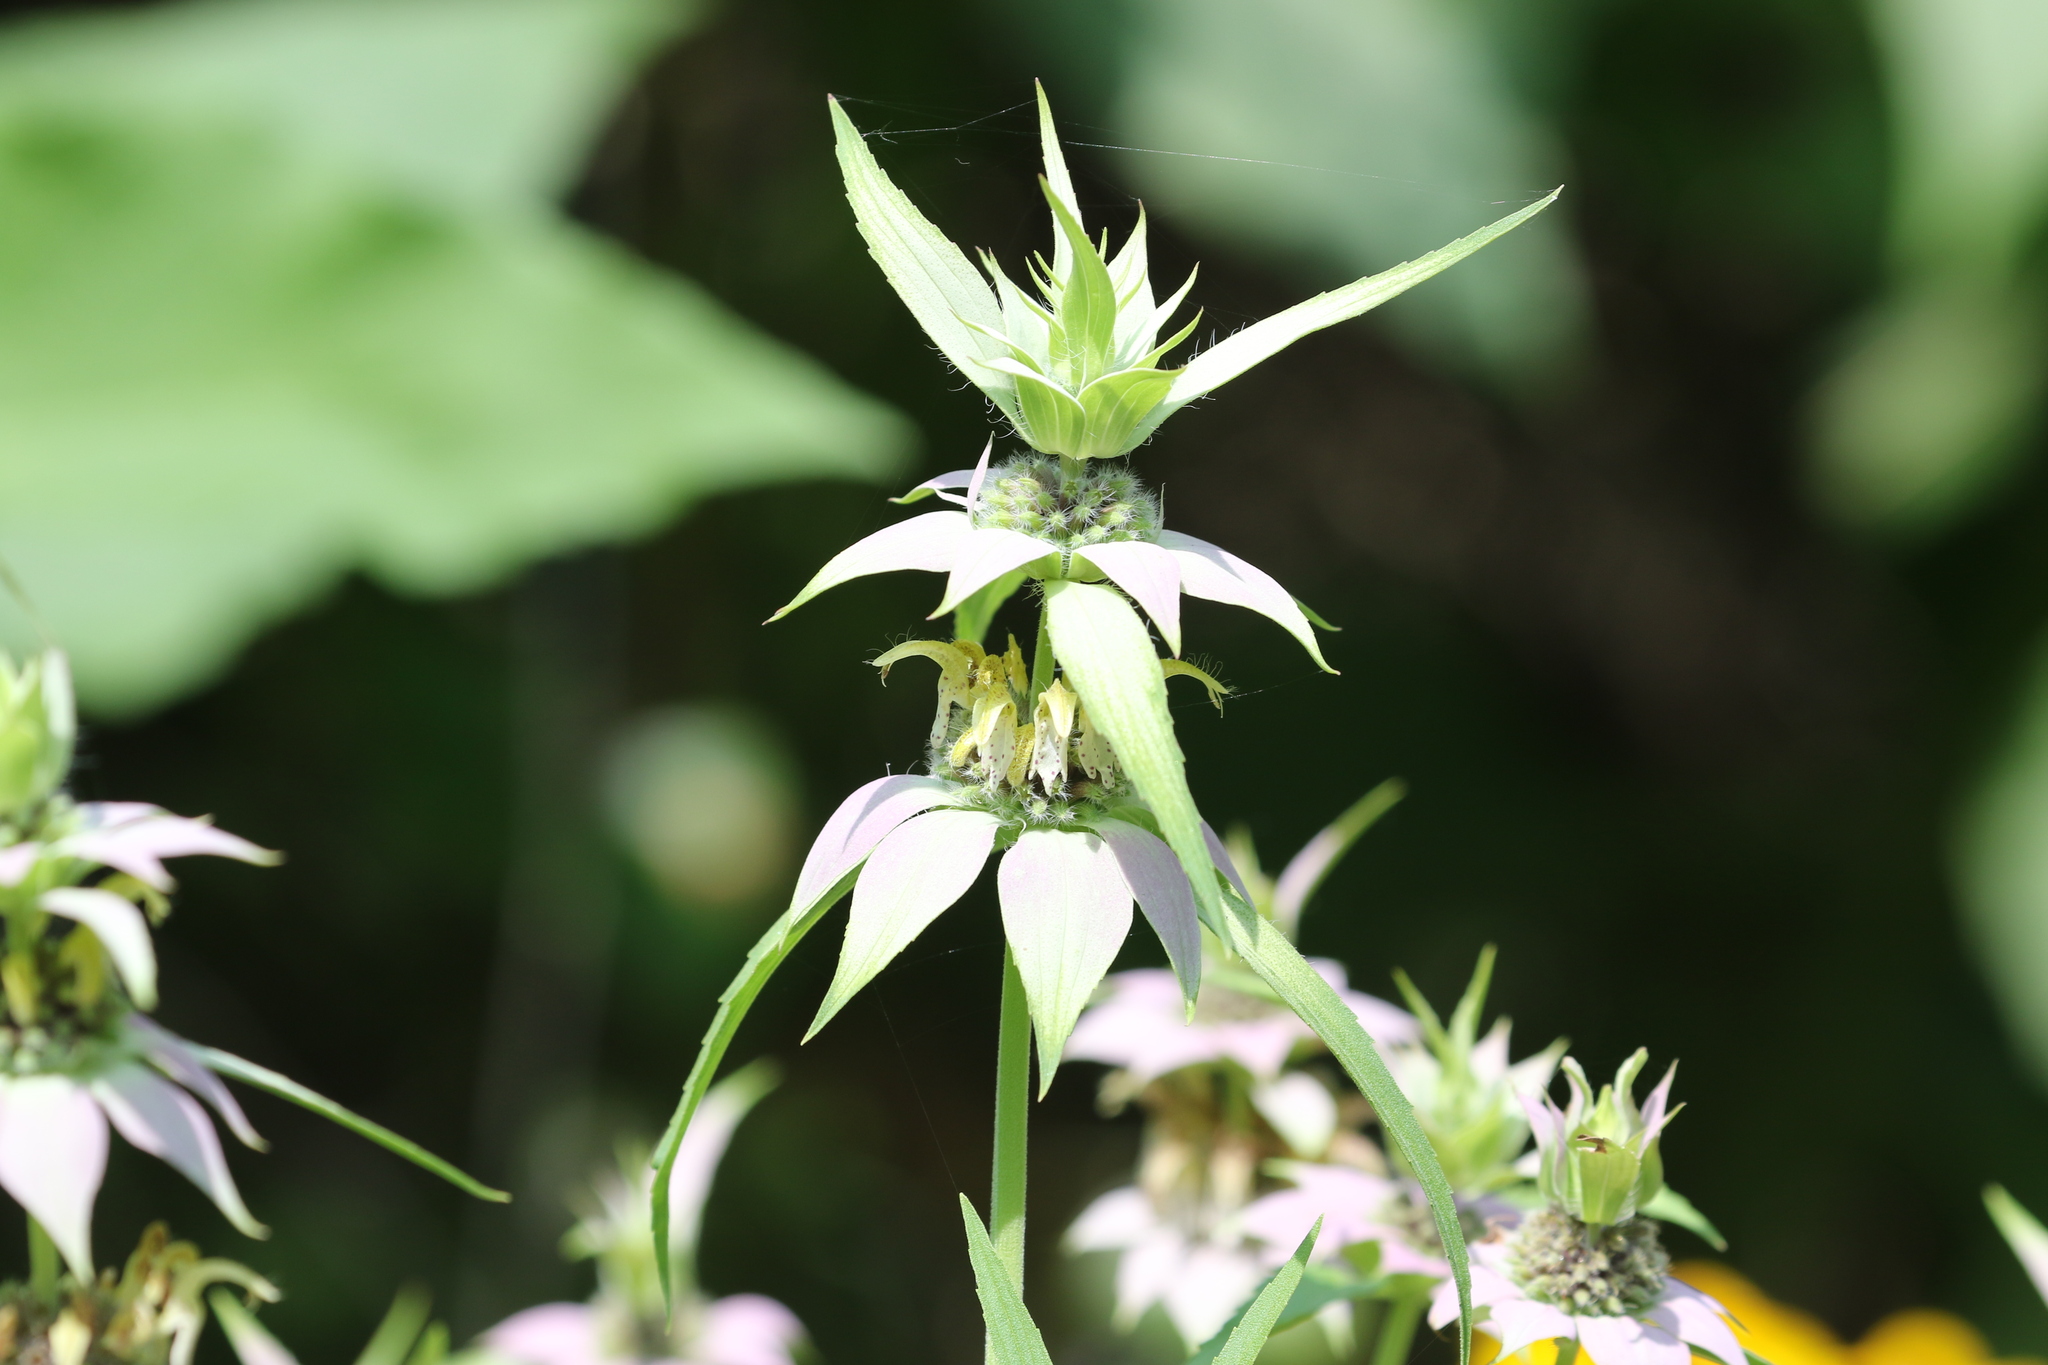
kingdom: Plantae
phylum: Tracheophyta
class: Magnoliopsida
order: Lamiales
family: Lamiaceae
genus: Monarda
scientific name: Monarda punctata
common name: Dotted monarda
